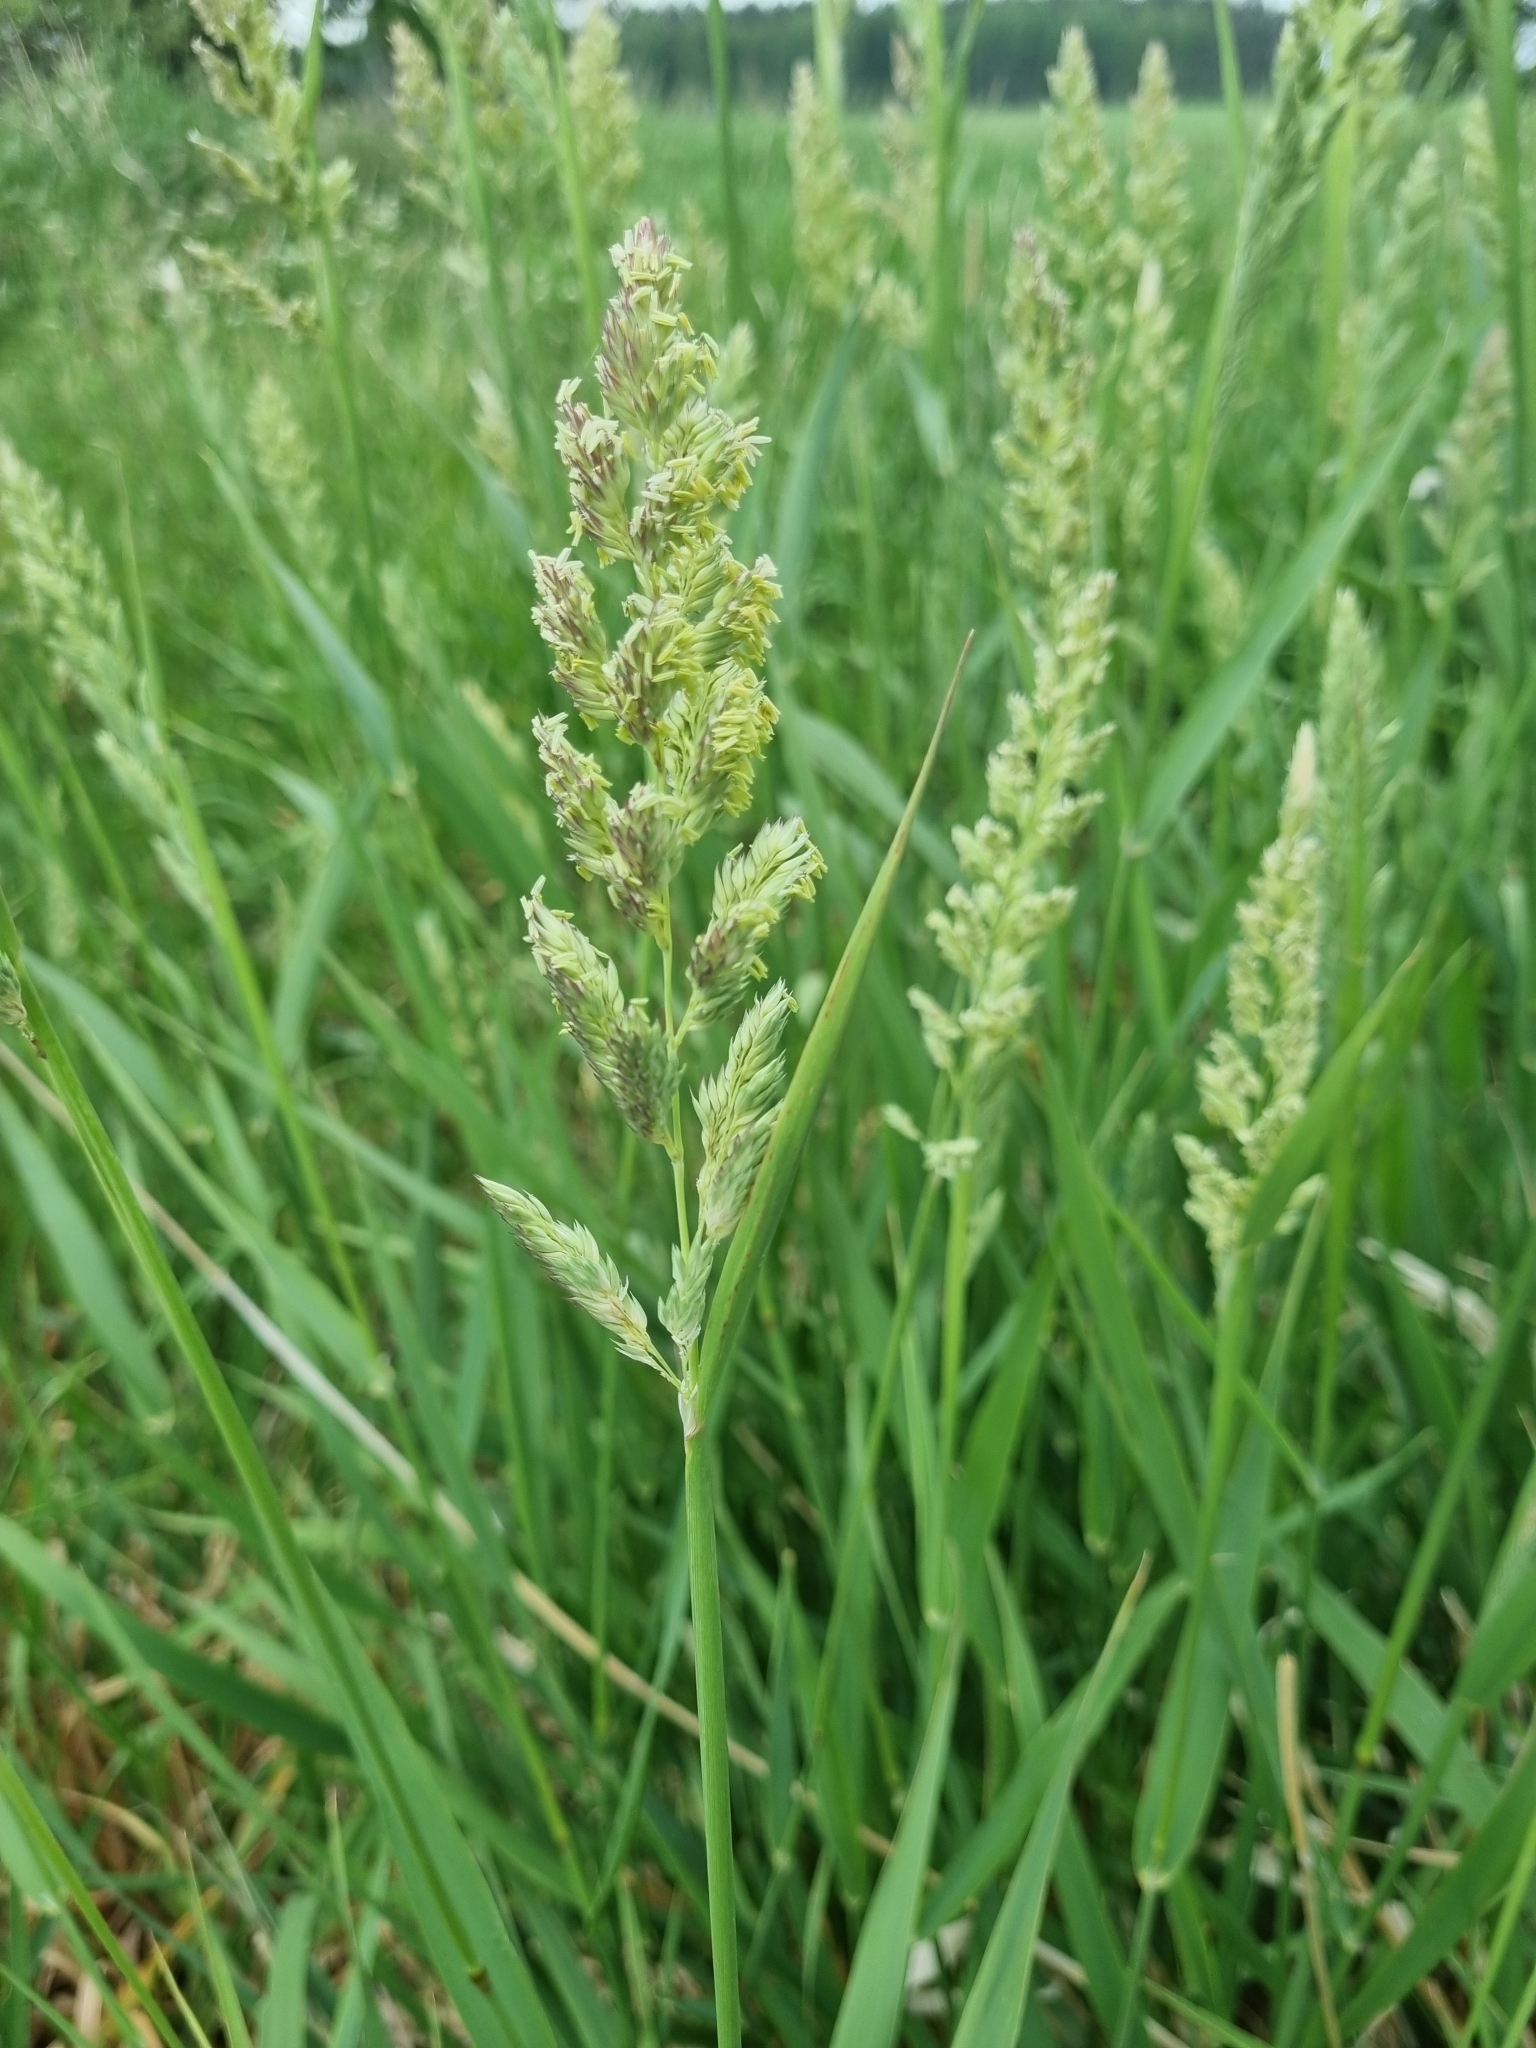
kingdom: Plantae
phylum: Tracheophyta
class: Liliopsida
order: Poales
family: Poaceae
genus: Phalaris
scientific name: Phalaris arundinacea
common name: Reed canary-grass
